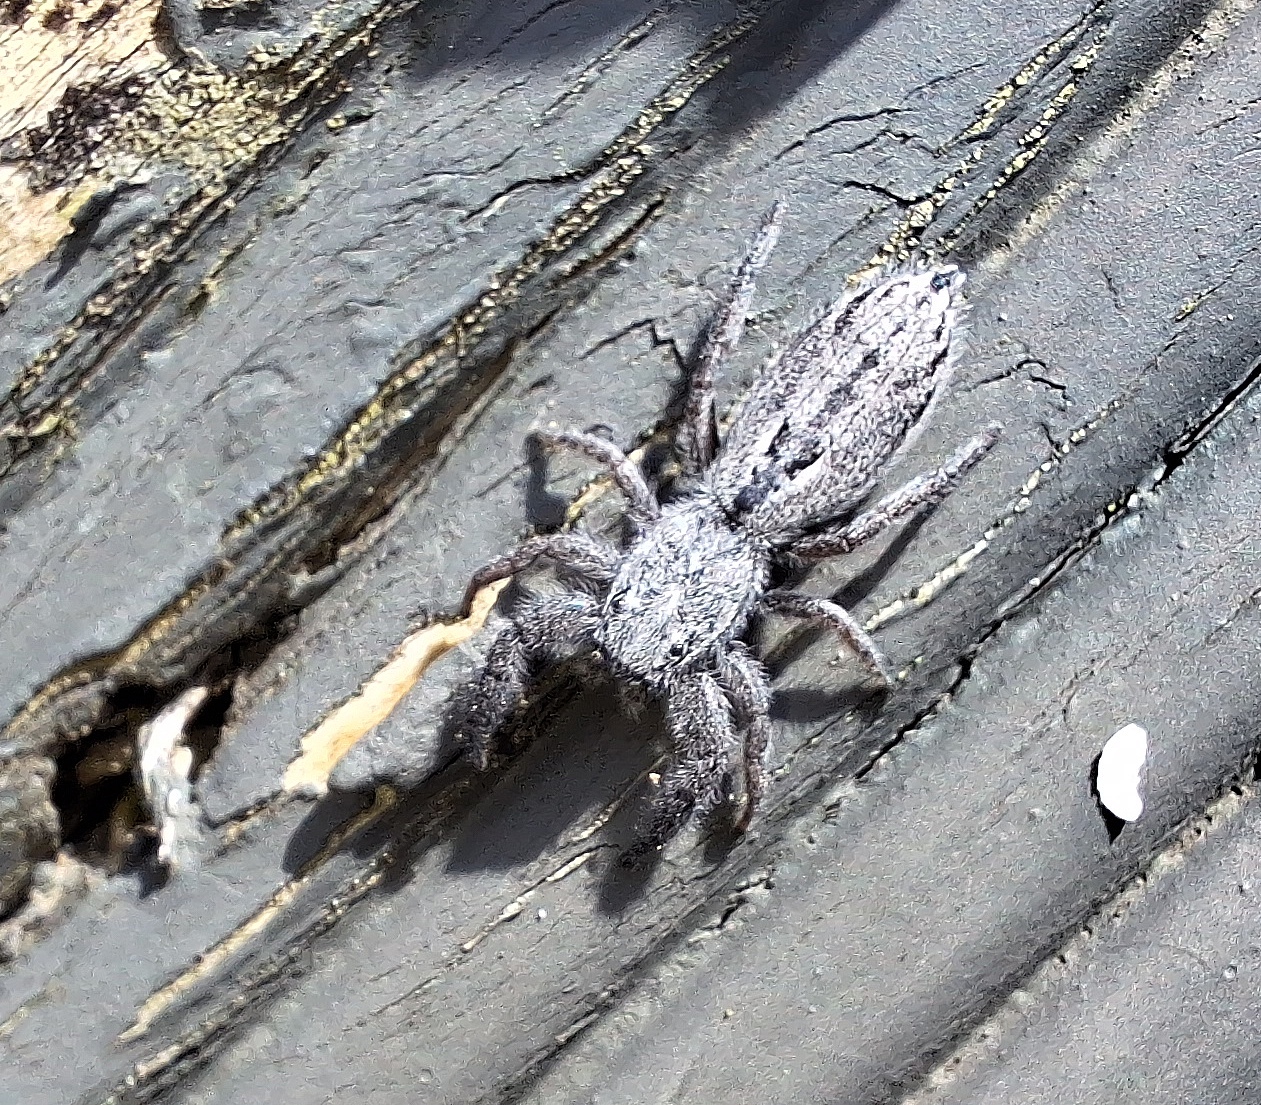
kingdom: Animalia
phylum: Arthropoda
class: Arachnida
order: Araneae
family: Salticidae
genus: Holoplatys
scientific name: Holoplatys apressus
